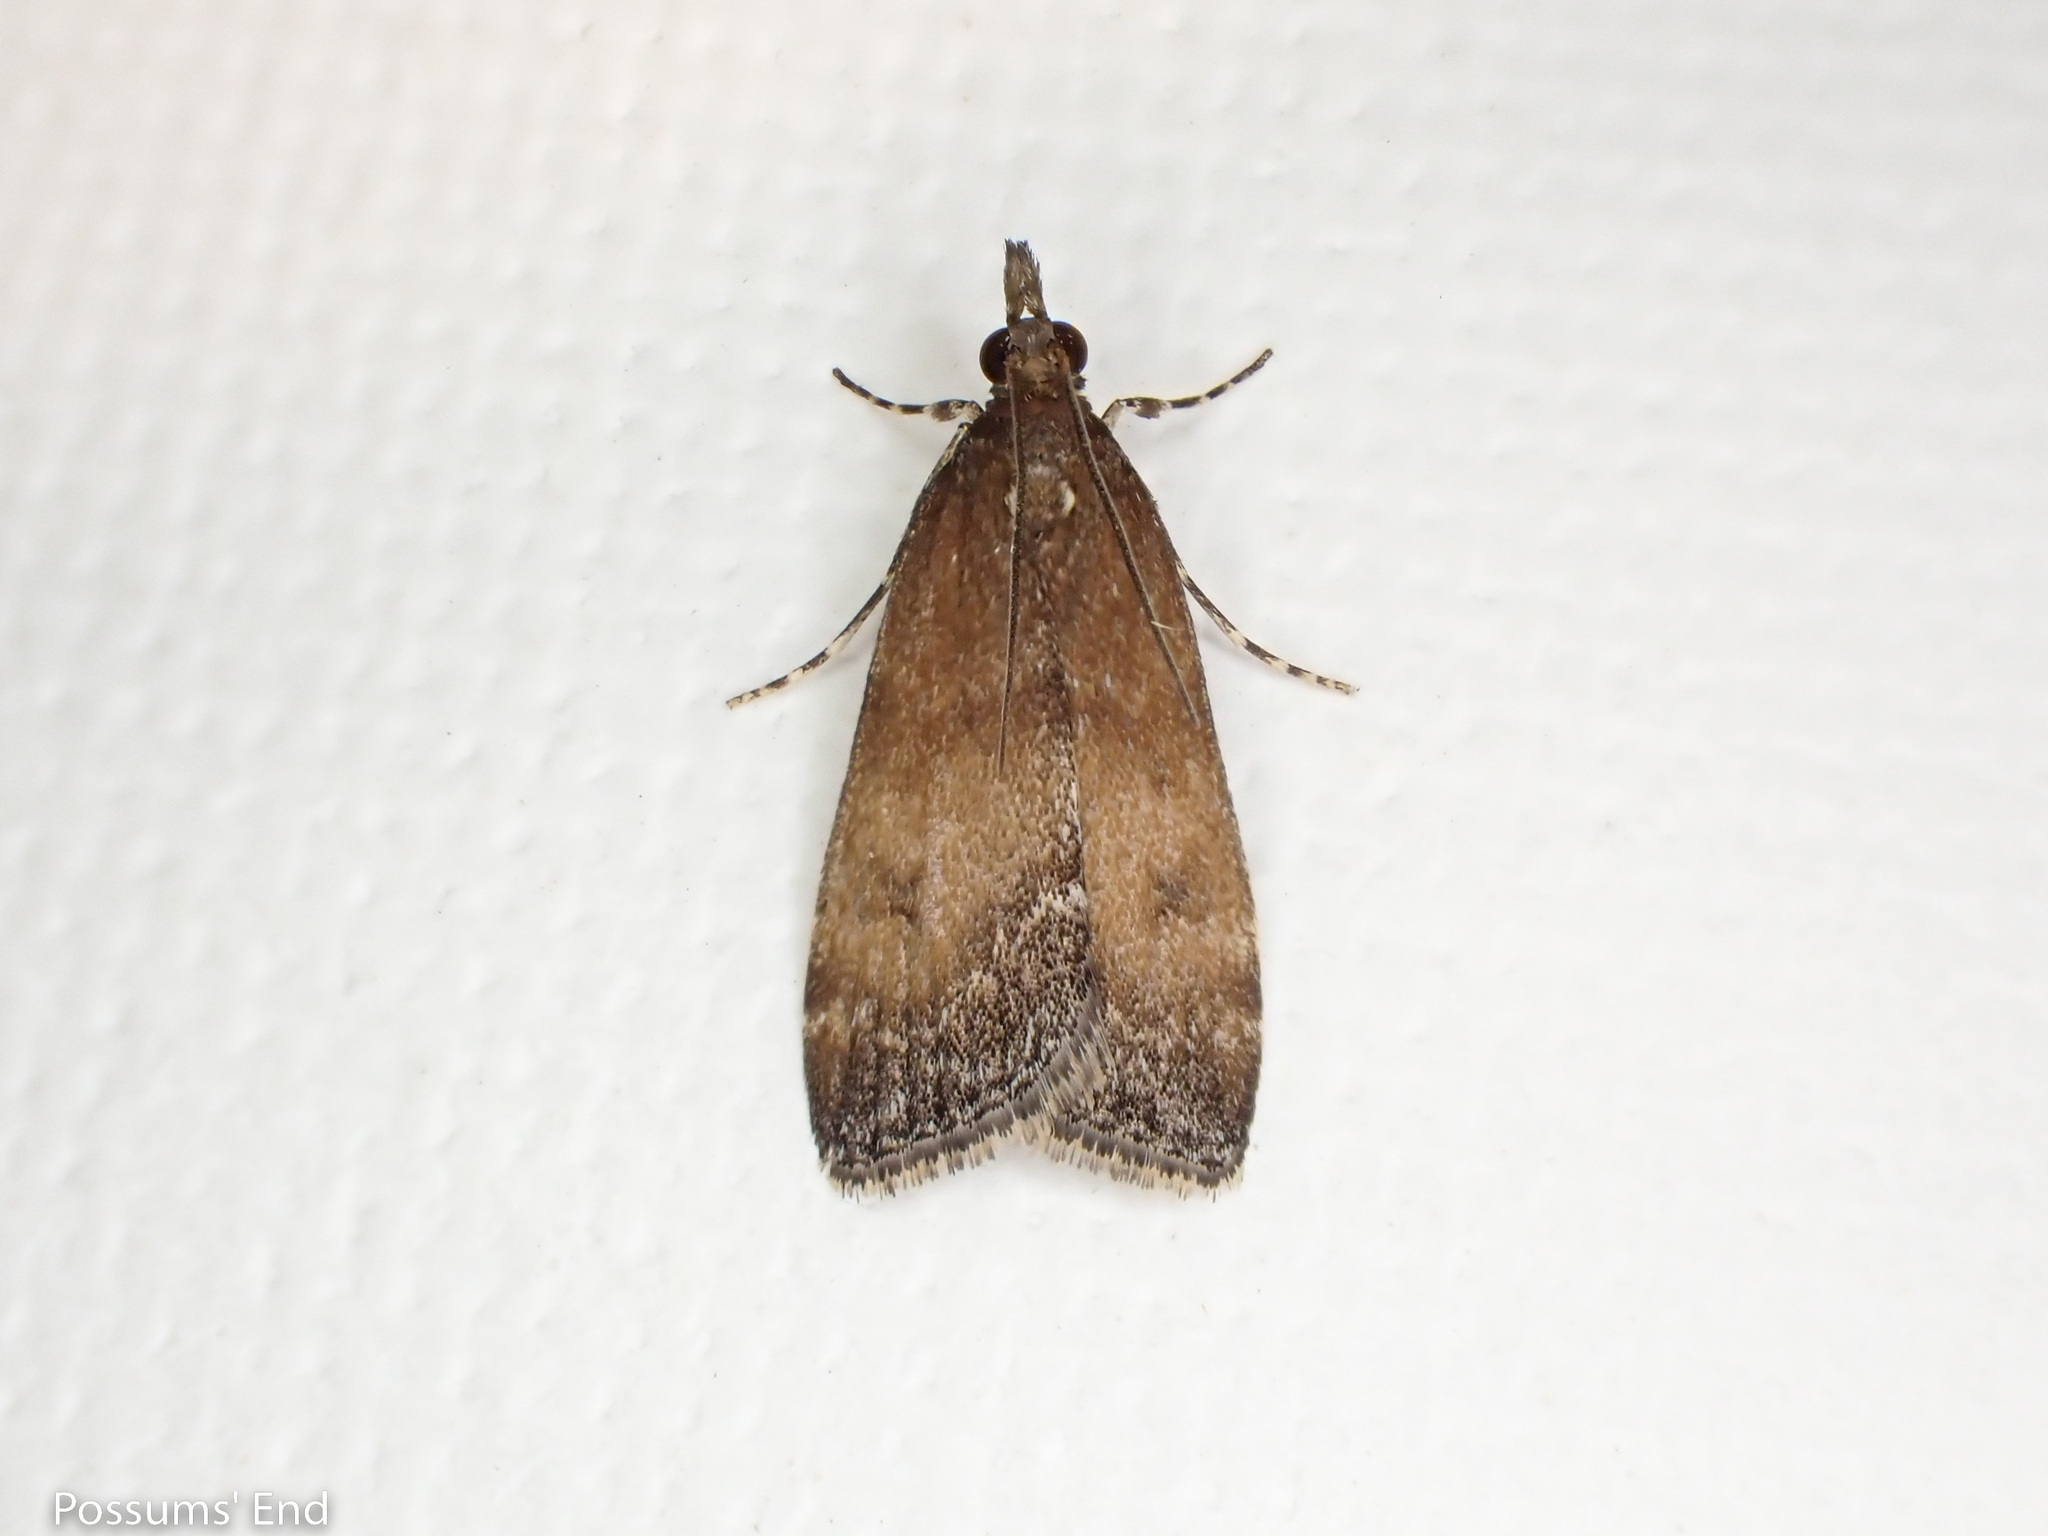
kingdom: Animalia
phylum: Arthropoda
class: Insecta
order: Lepidoptera
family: Crambidae
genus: Eudonia
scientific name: Eudonia asterisca
